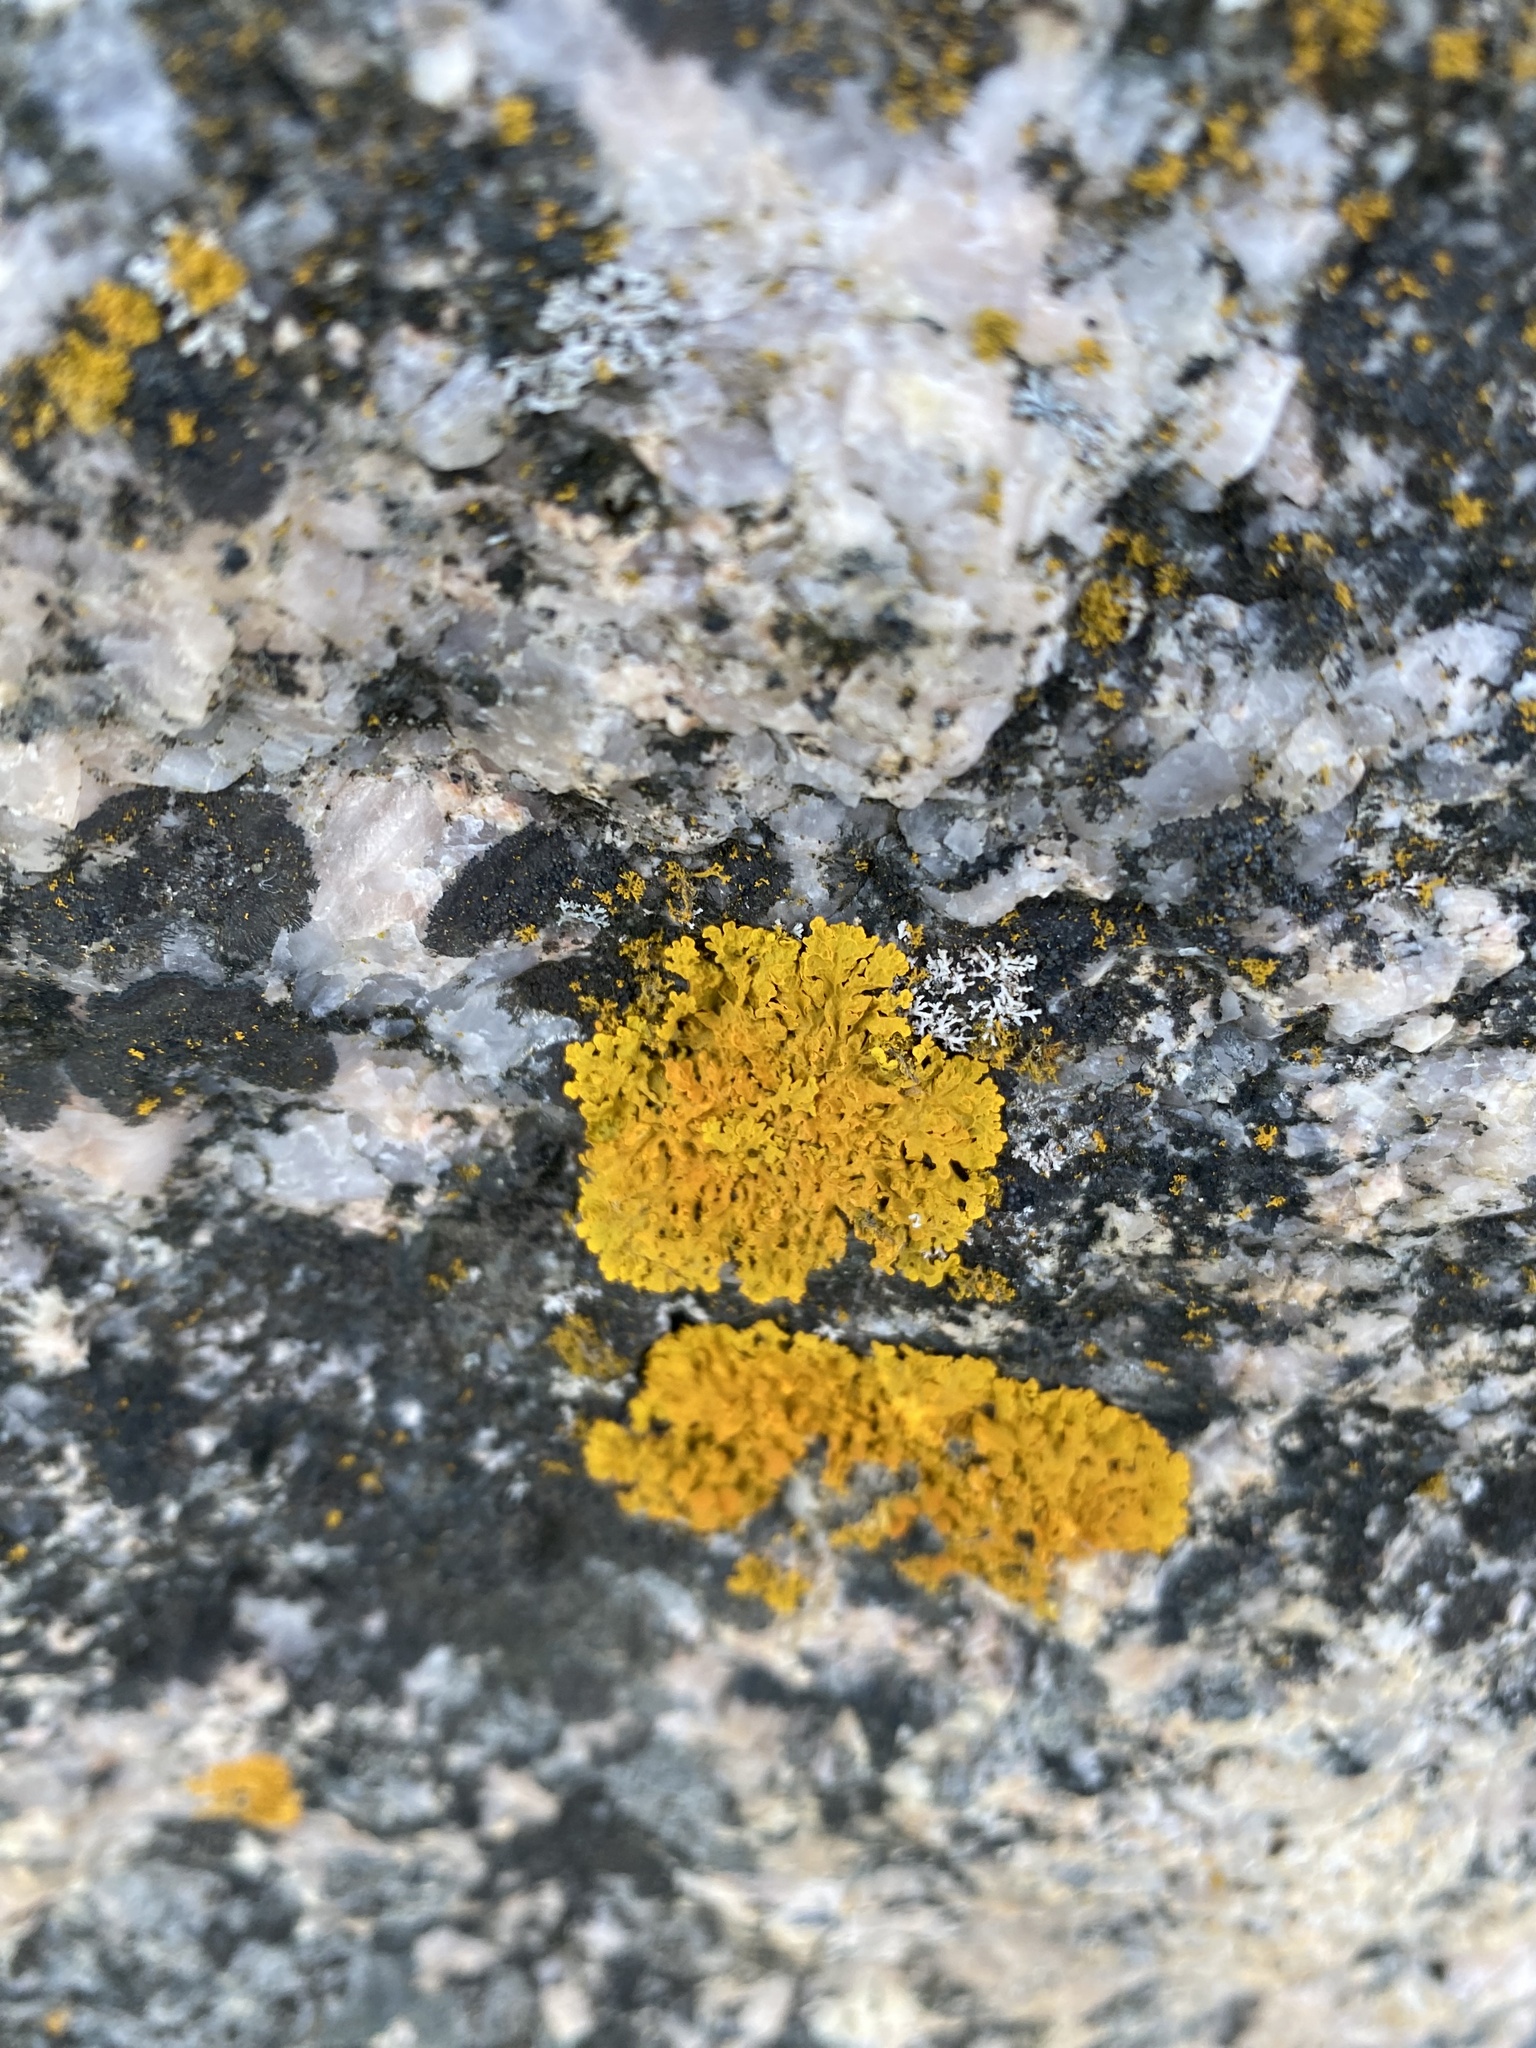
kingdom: Fungi
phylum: Ascomycota
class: Lecanoromycetes
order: Teloschistales
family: Teloschistaceae
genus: Xanthoria
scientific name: Xanthoria parietina
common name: Common orange lichen
